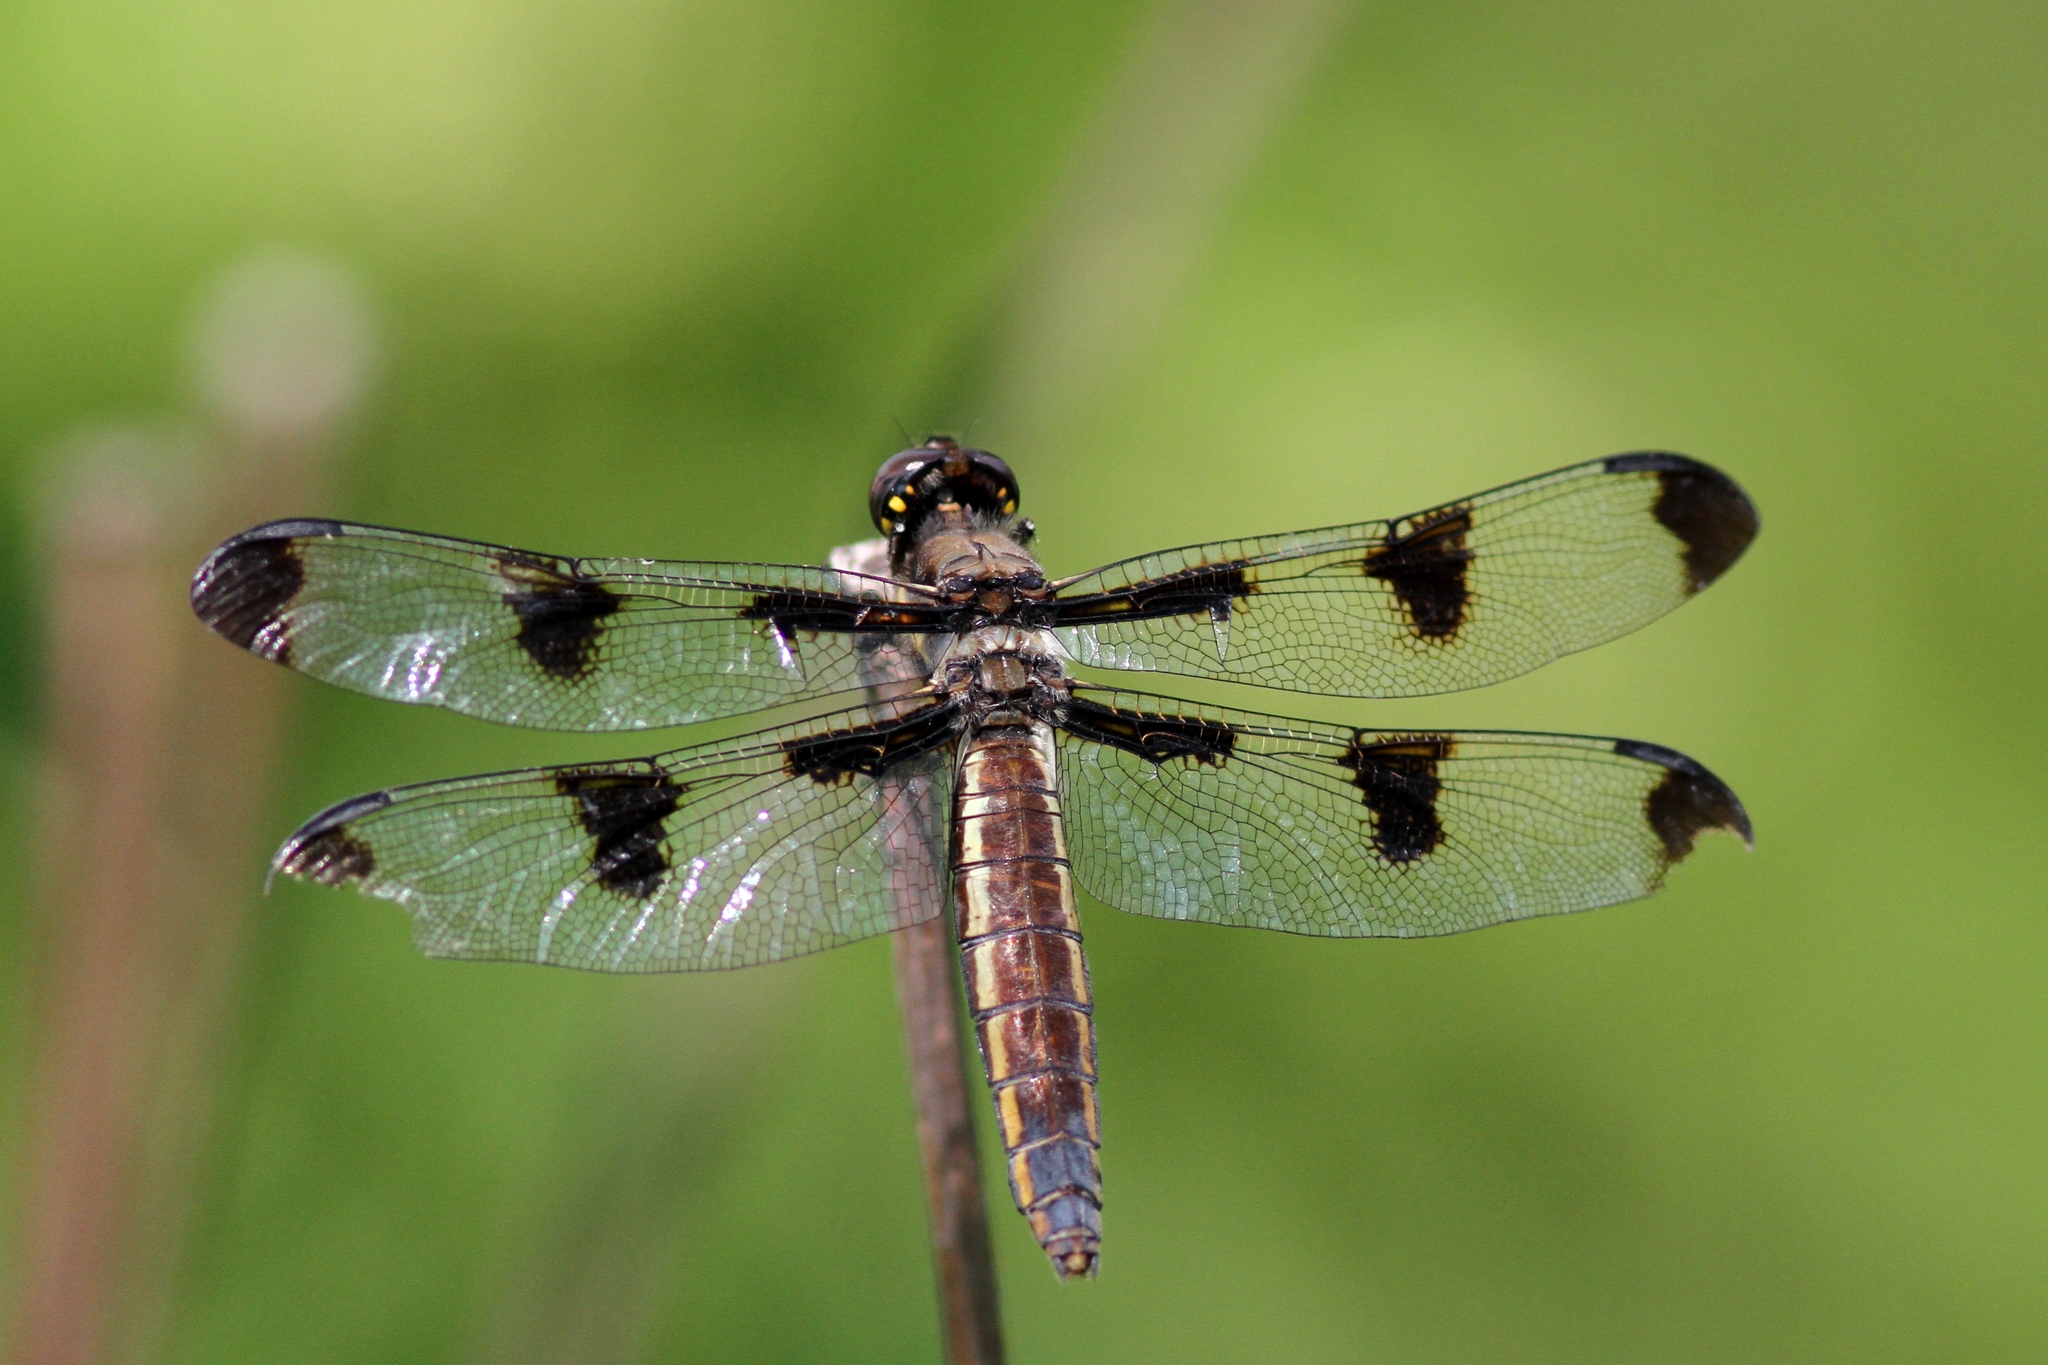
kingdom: Animalia
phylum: Arthropoda
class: Insecta
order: Odonata
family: Libellulidae
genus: Libellula
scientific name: Libellula pulchella
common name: Twelve-spotted skimmer
